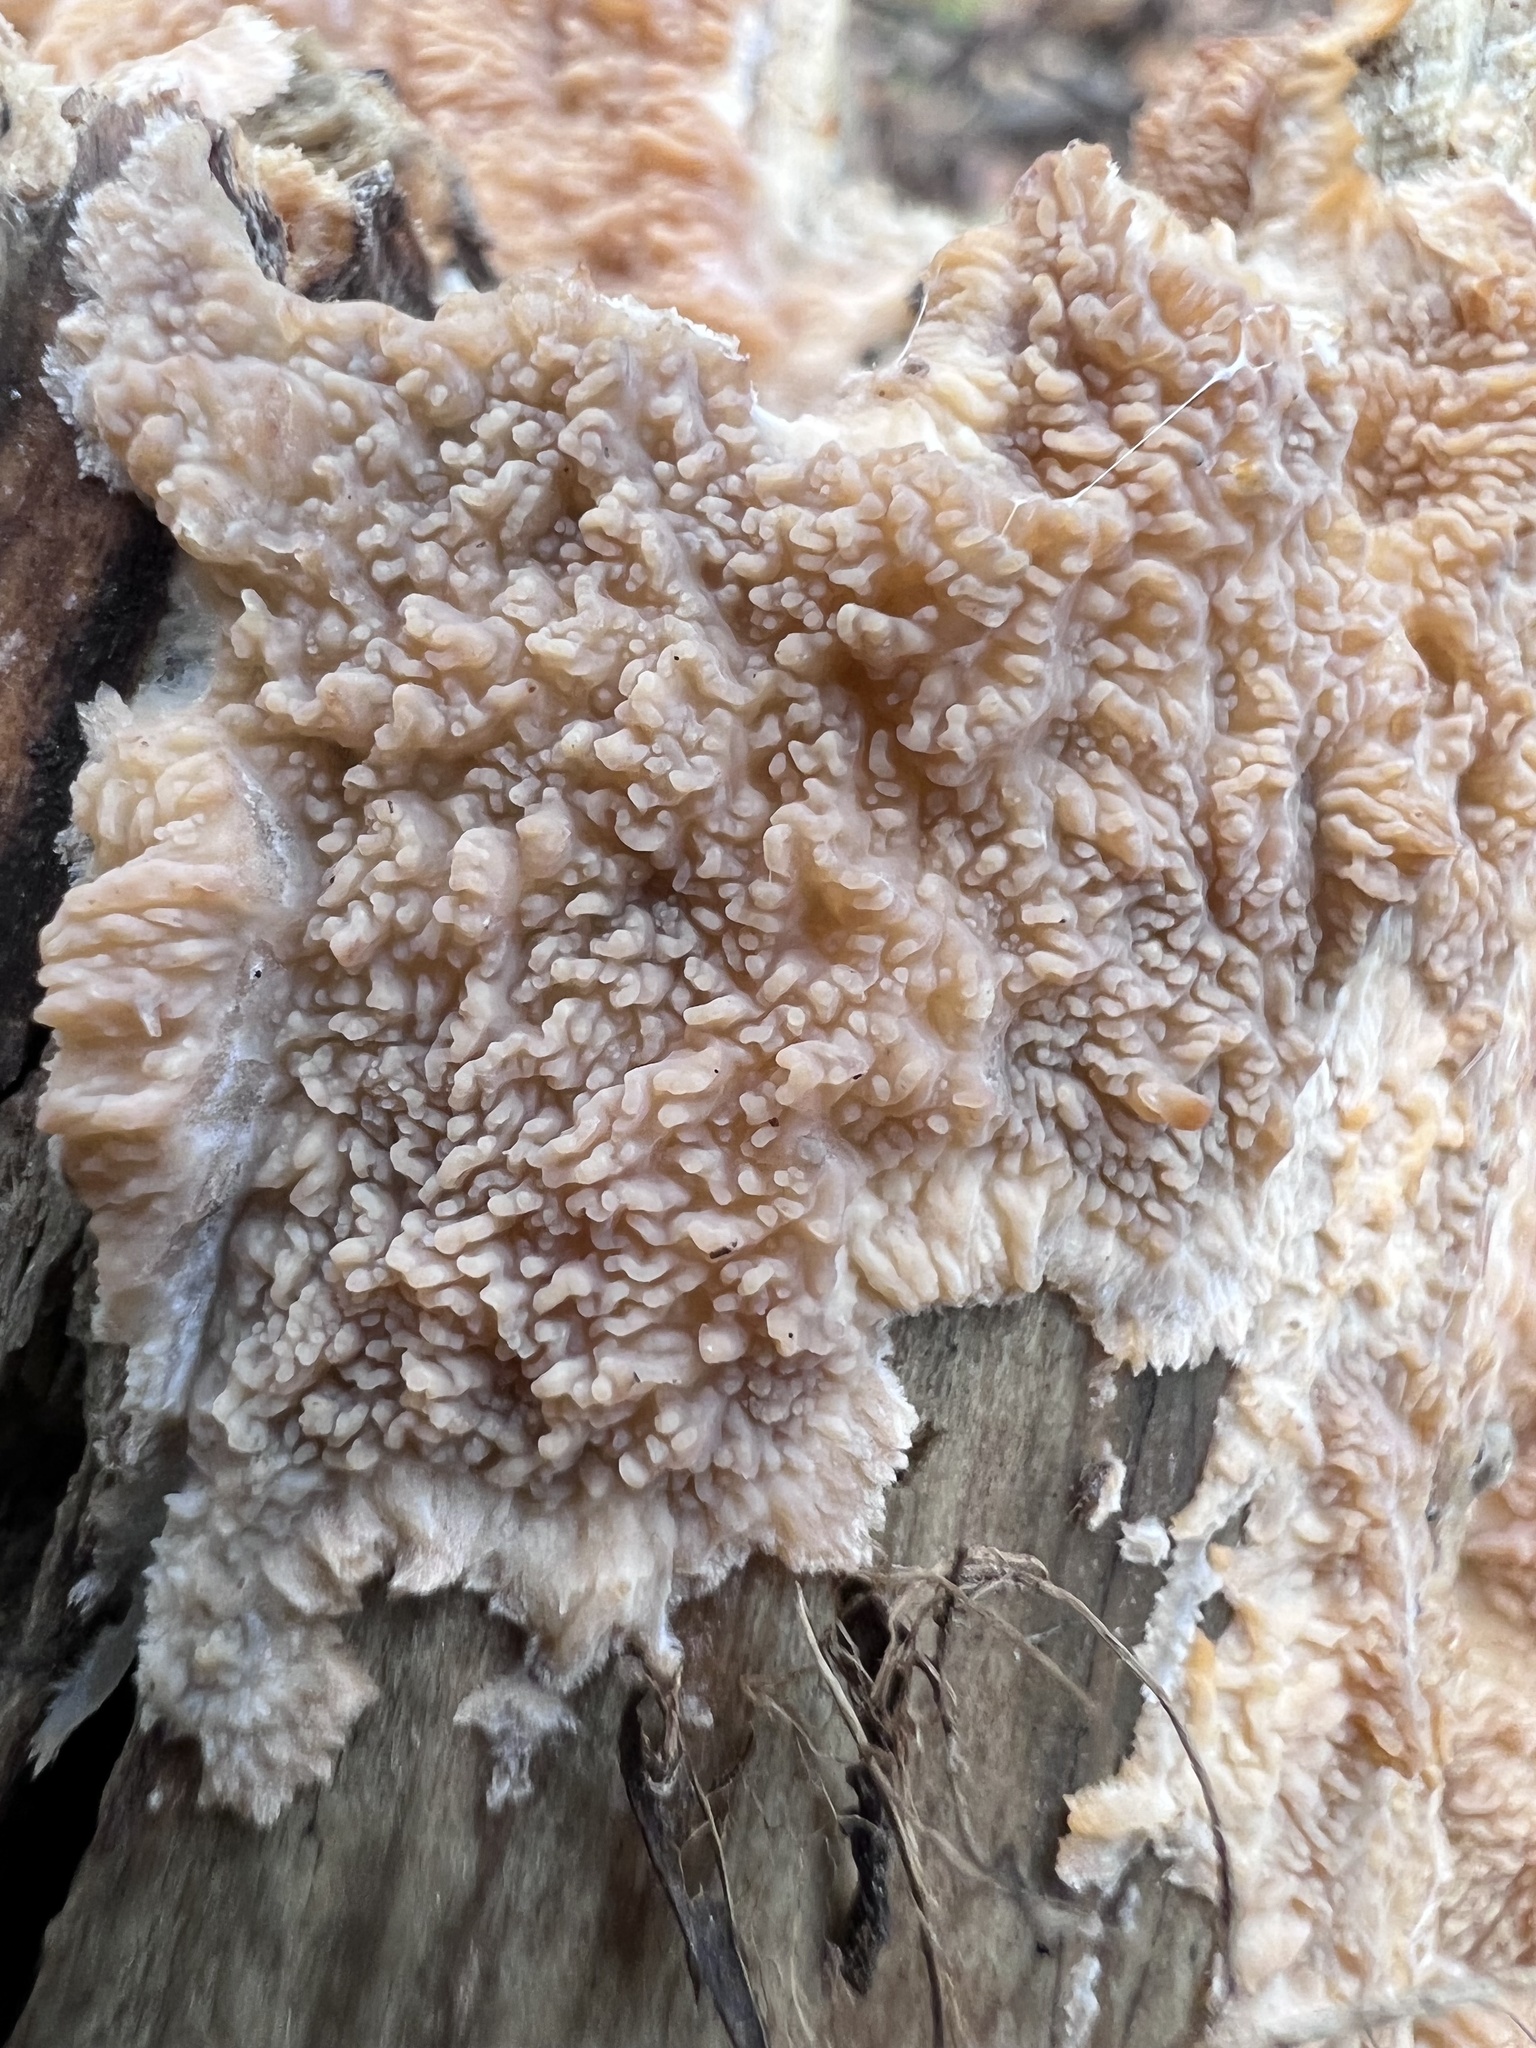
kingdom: Fungi
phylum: Basidiomycota
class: Agaricomycetes
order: Polyporales
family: Meruliaceae
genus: Phlebia
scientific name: Phlebia radiata
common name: Wrinkled crust
